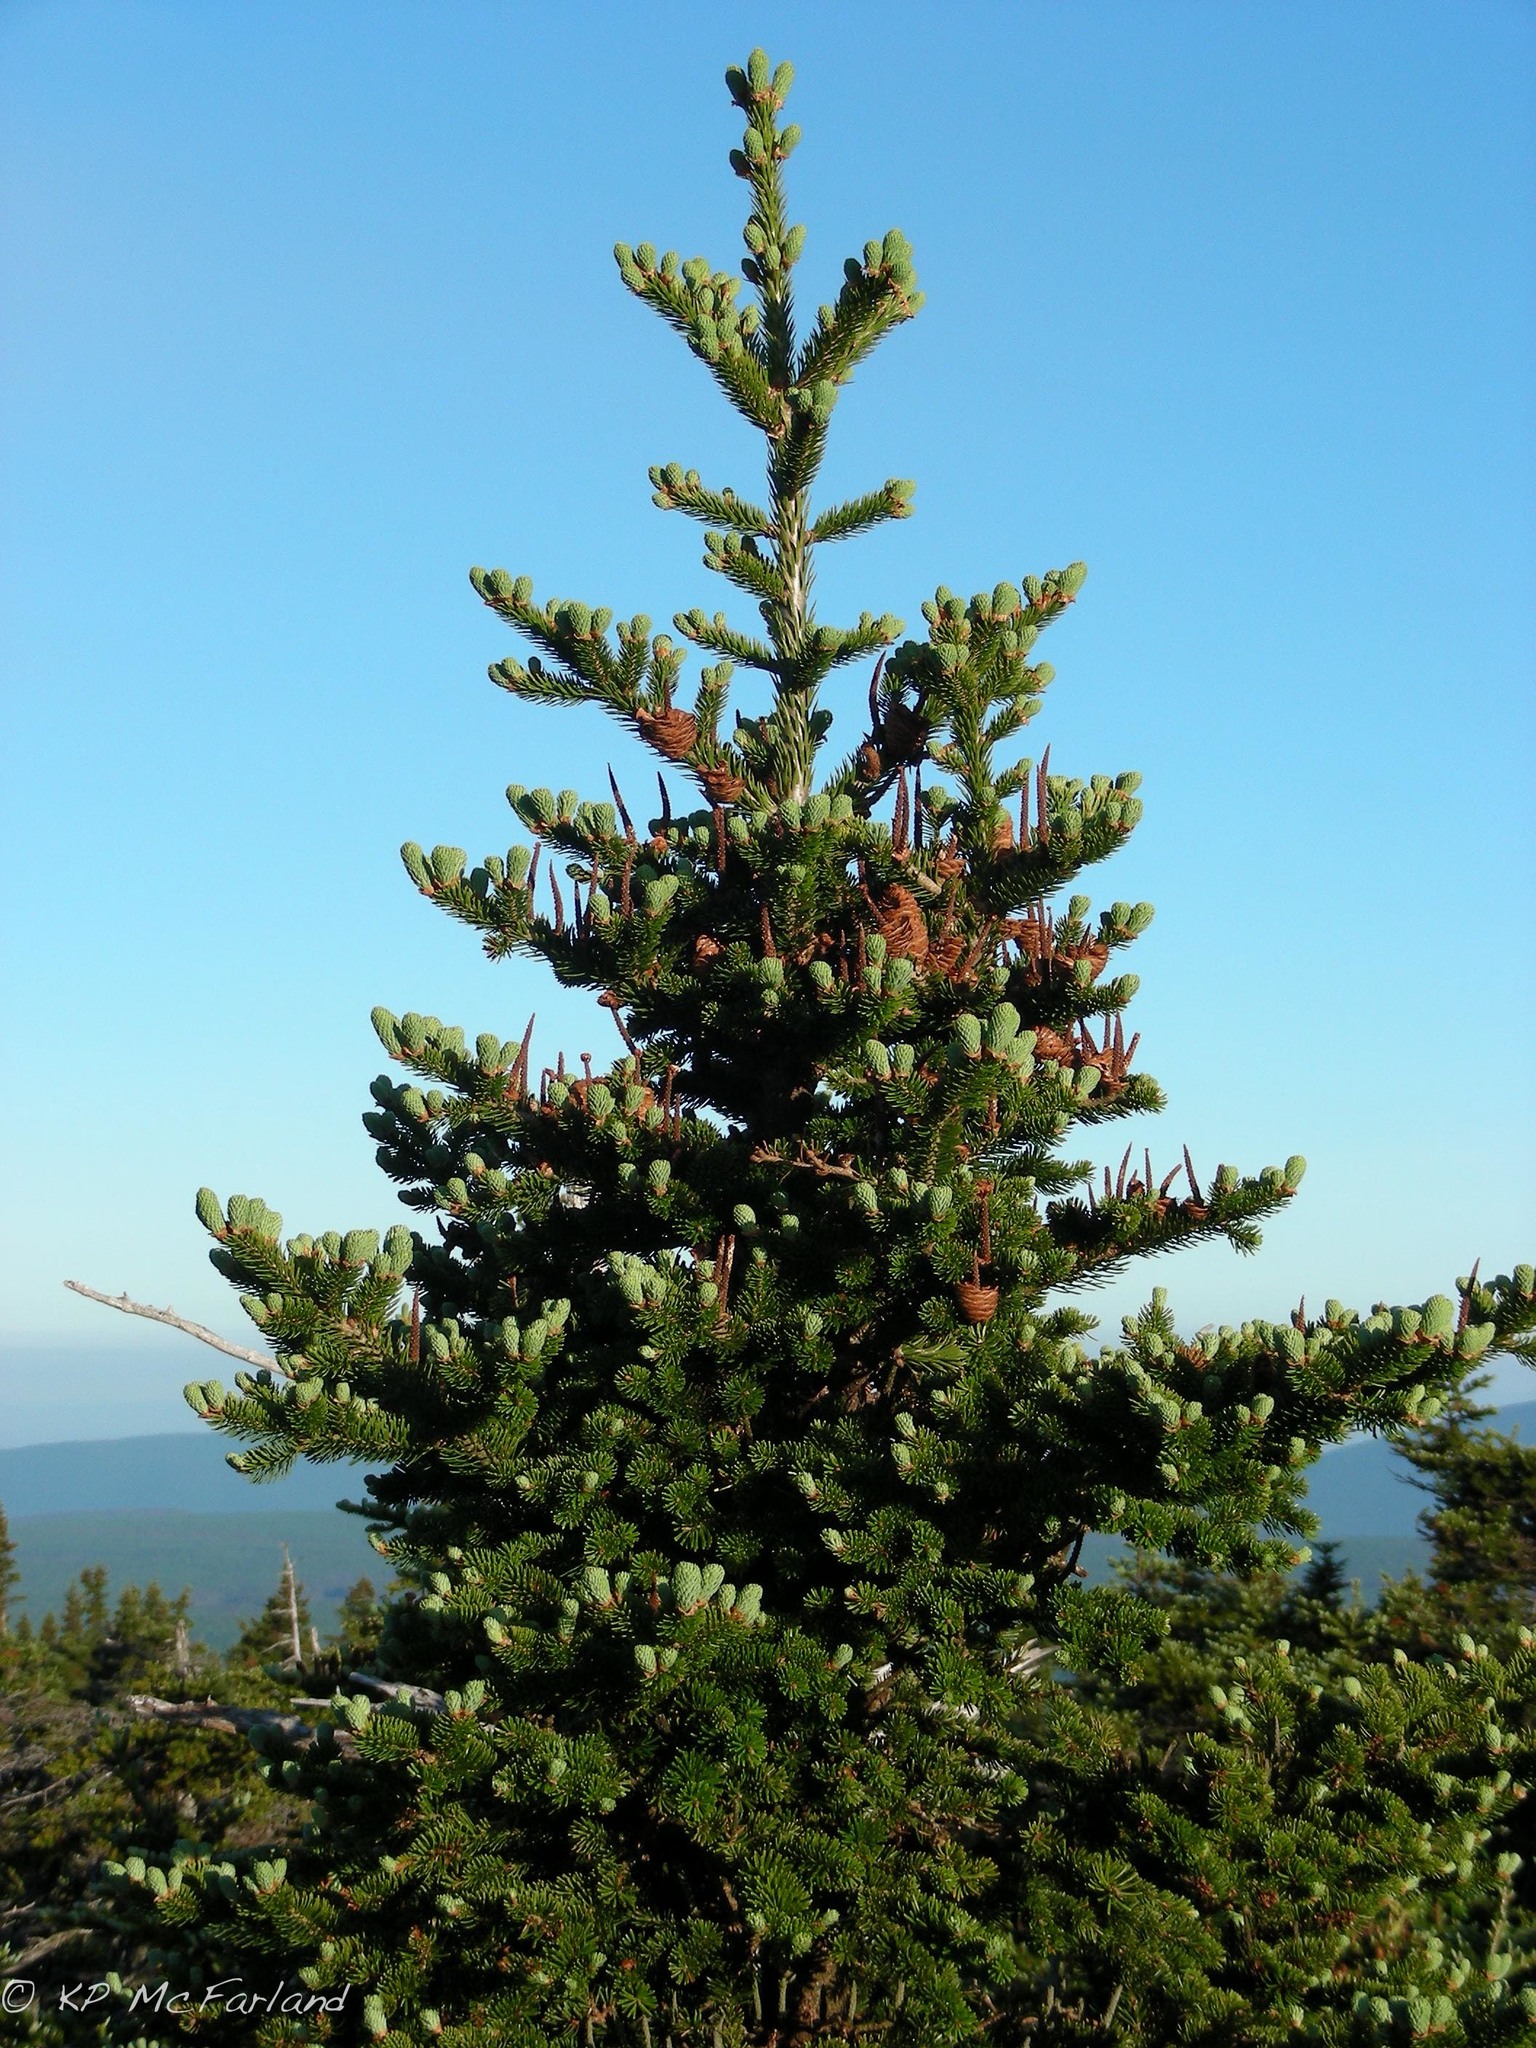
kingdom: Plantae
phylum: Tracheophyta
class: Pinopsida
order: Pinales
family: Pinaceae
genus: Abies
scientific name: Abies balsamea
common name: Balsam fir
